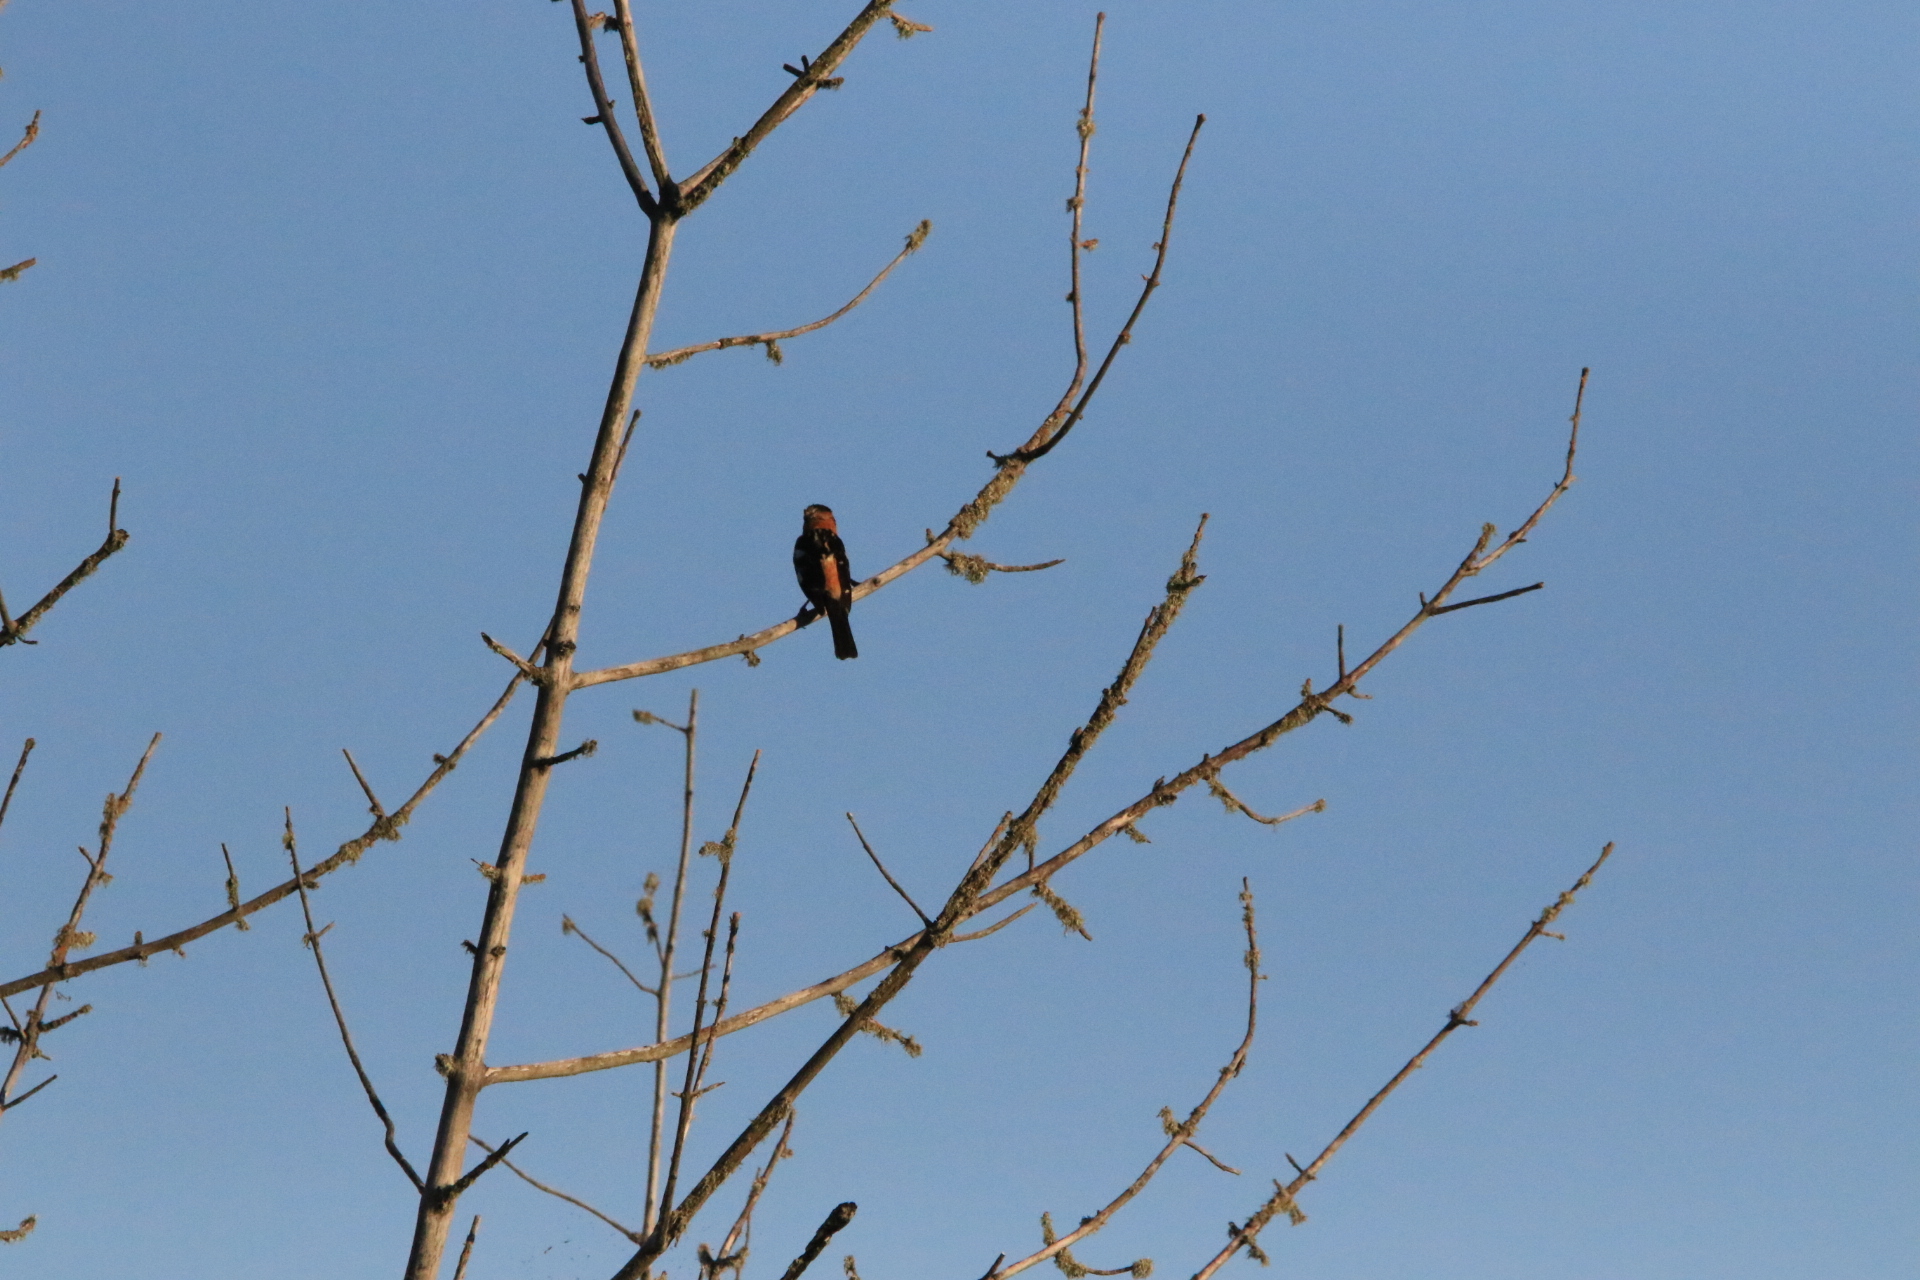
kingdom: Animalia
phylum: Chordata
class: Aves
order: Passeriformes
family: Cardinalidae
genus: Pheucticus
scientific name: Pheucticus melanocephalus
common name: Black-headed grosbeak
